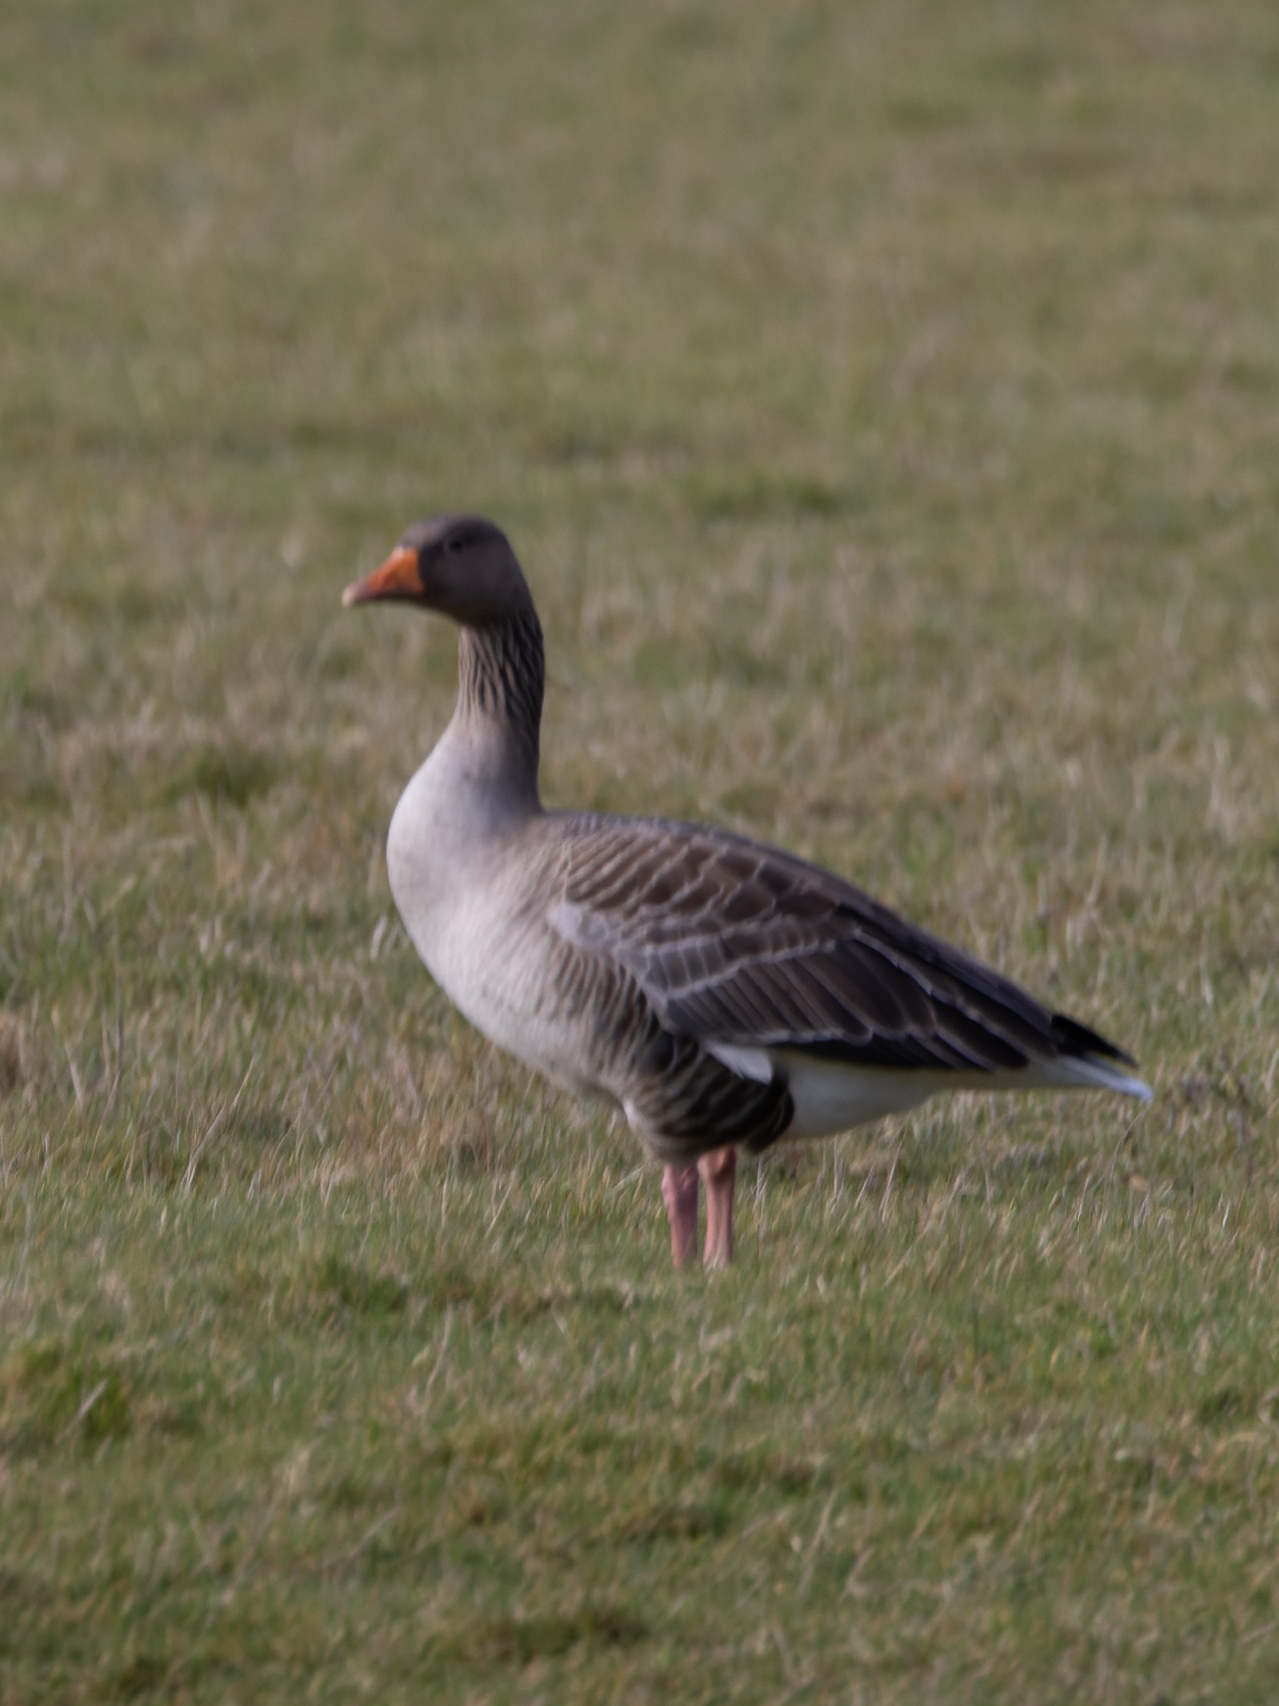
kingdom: Animalia
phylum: Chordata
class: Aves
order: Anseriformes
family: Anatidae
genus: Anser
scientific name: Anser anser
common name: Greylag goose
